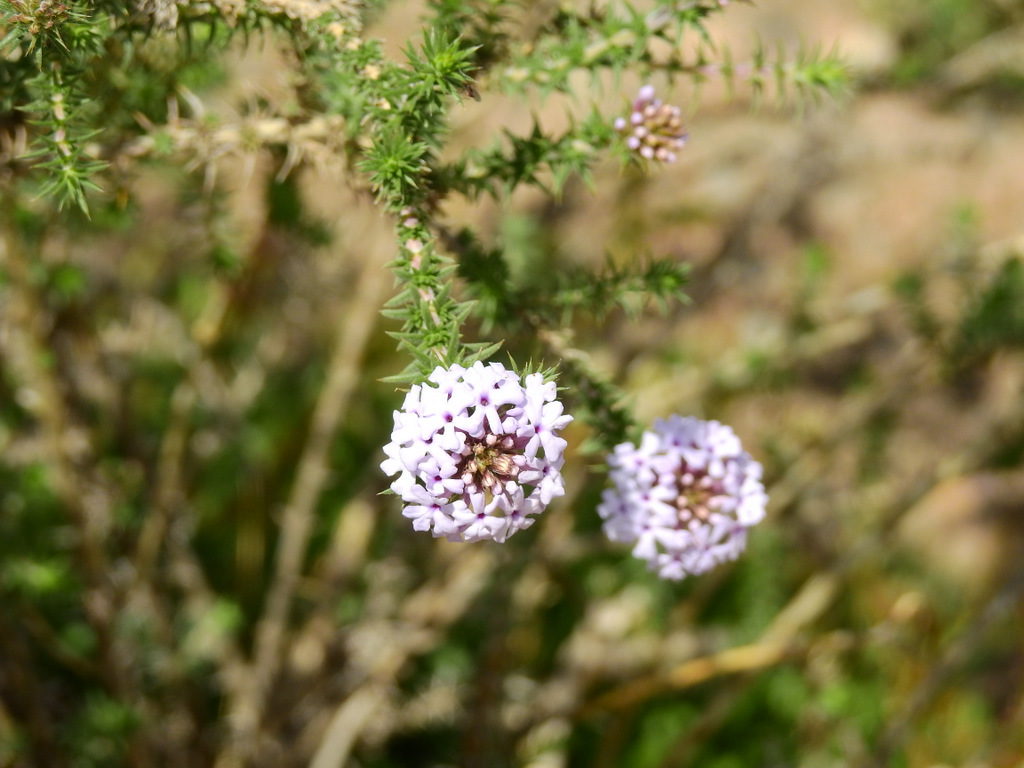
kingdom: Plantae
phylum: Tracheophyta
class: Magnoliopsida
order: Lamiales
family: Verbenaceae
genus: Junellia
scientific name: Junellia juniperina
